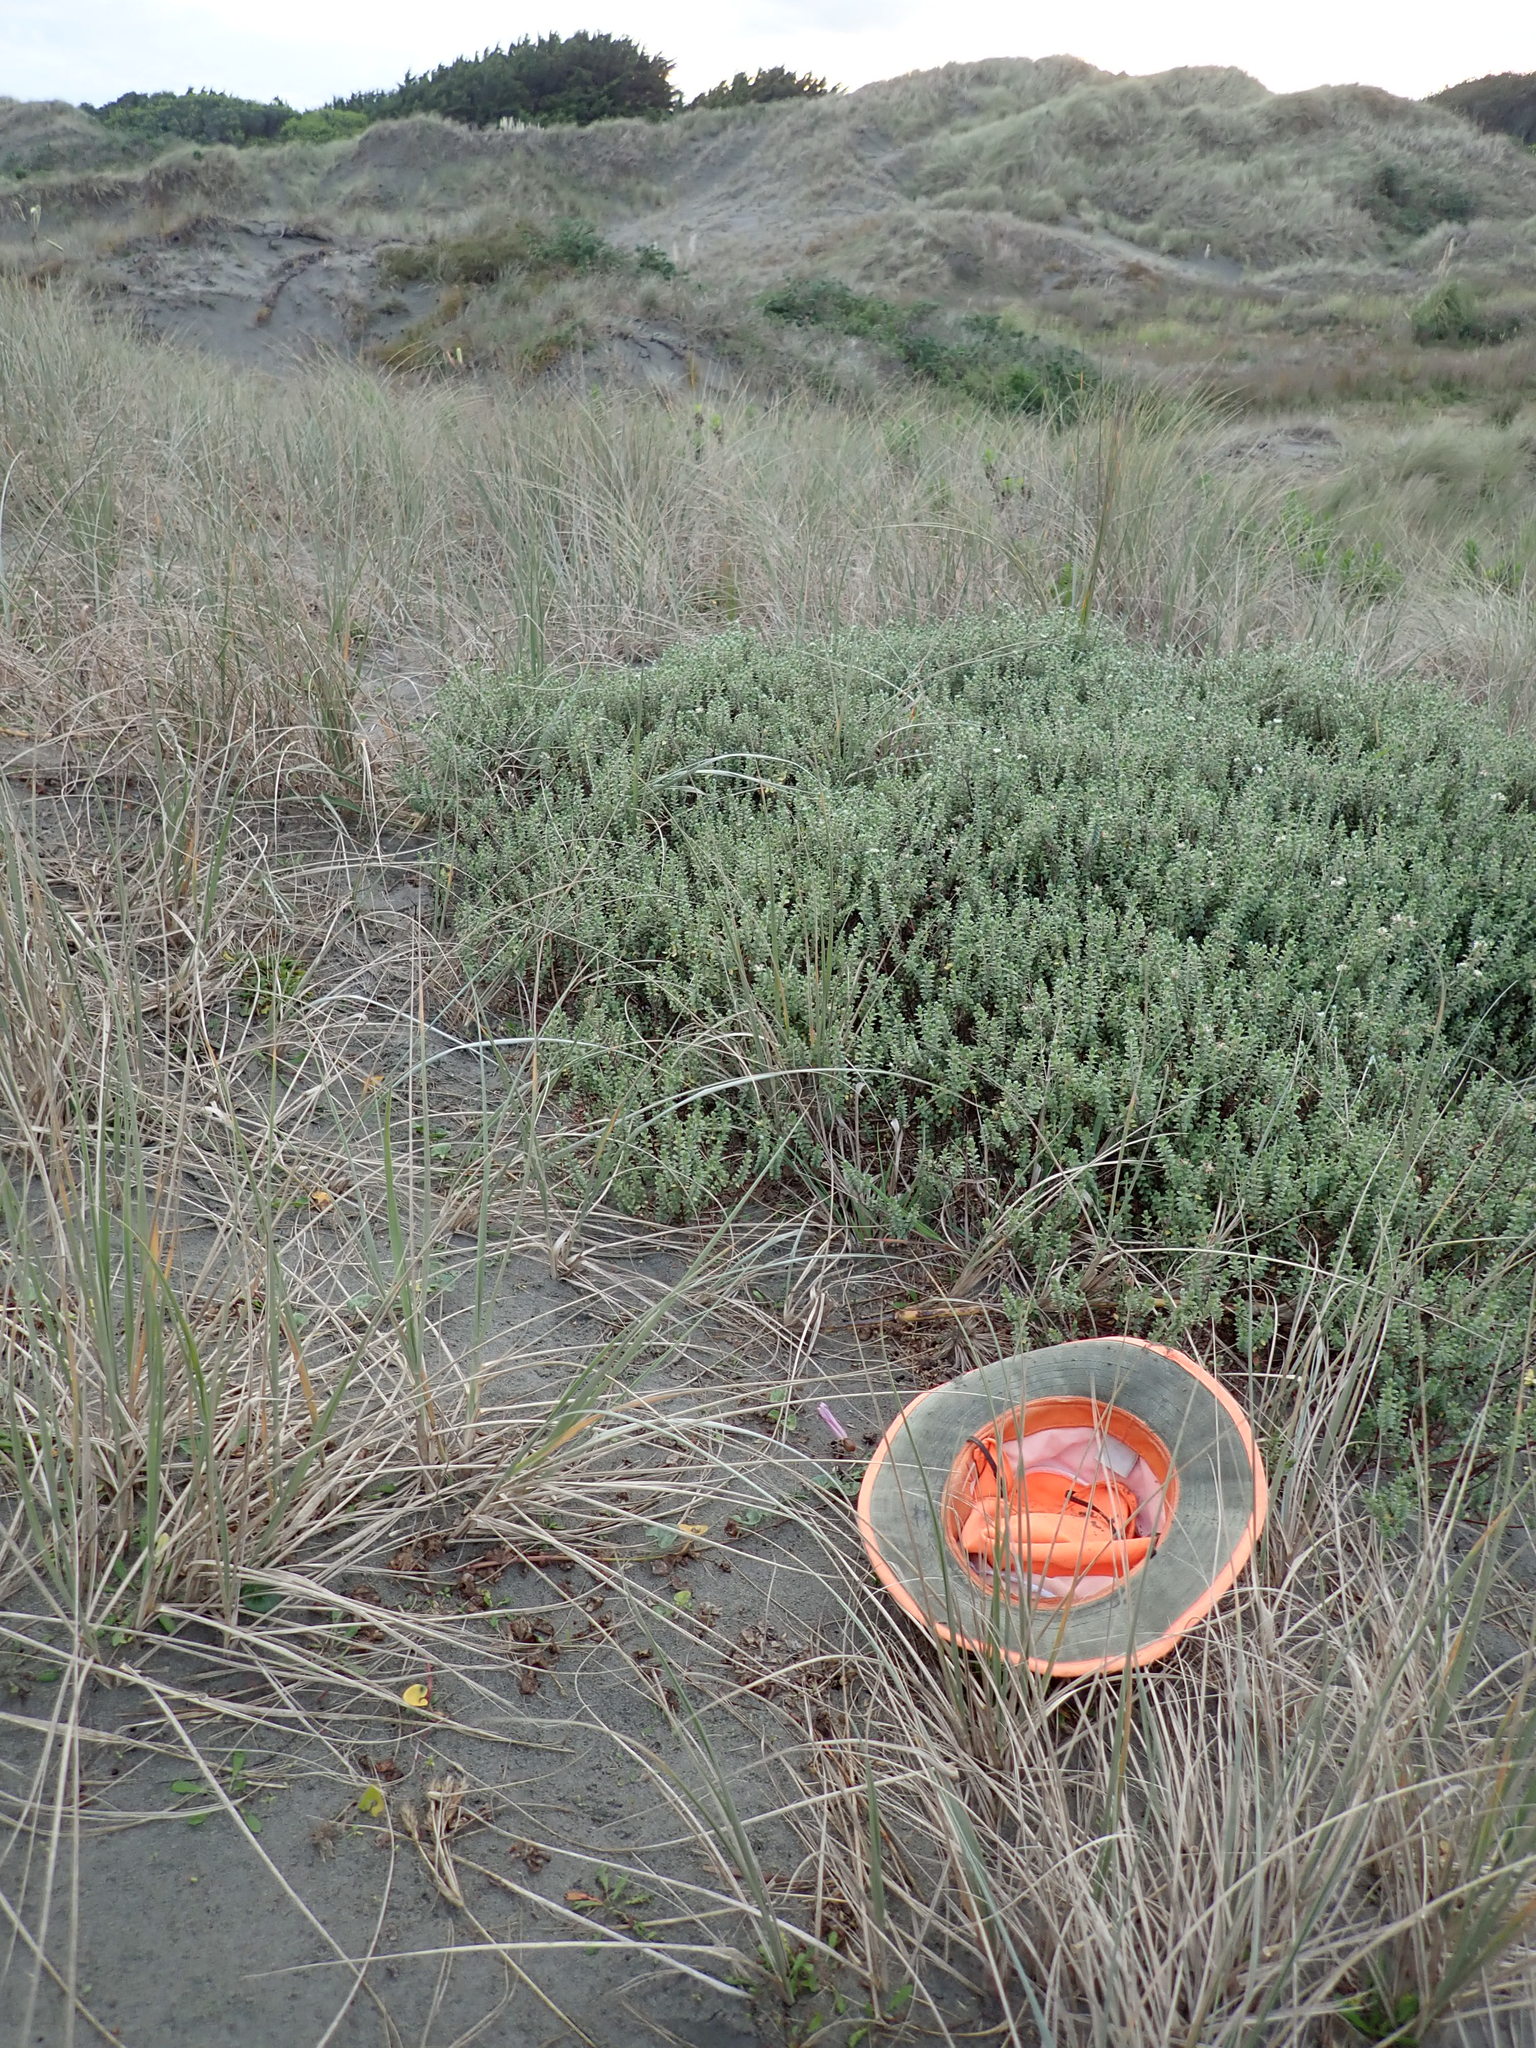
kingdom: Plantae
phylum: Tracheophyta
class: Magnoliopsida
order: Solanales
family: Convolvulaceae
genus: Calystegia
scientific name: Calystegia soldanella
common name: Sea bindweed
